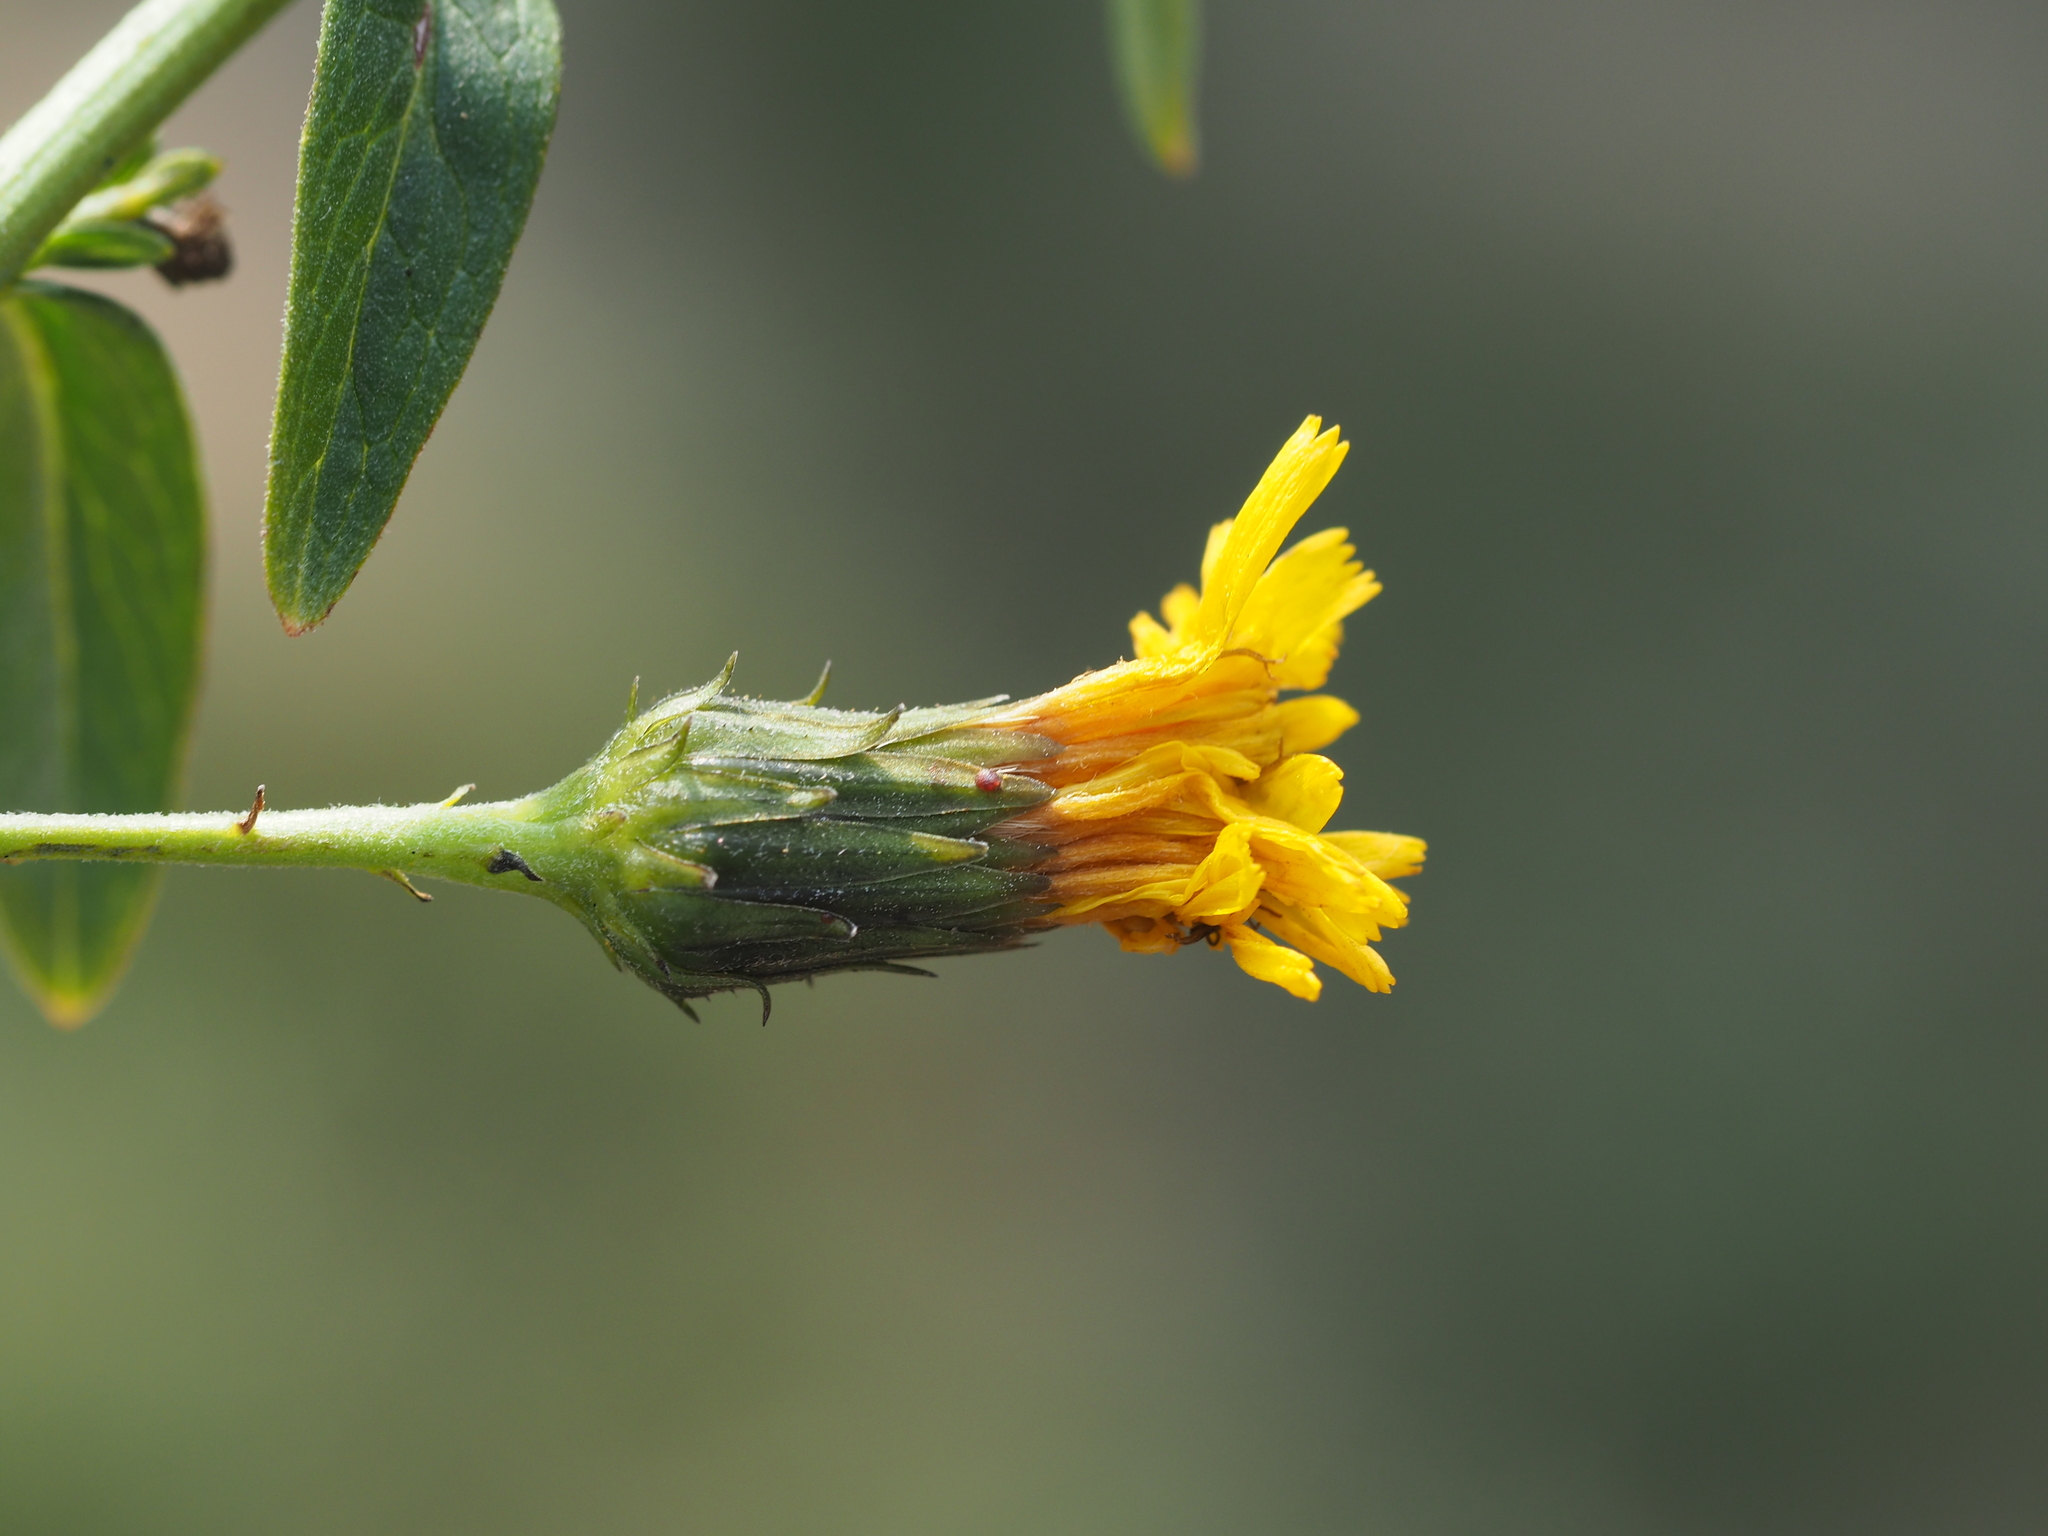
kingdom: Plantae
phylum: Tracheophyta
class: Magnoliopsida
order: Asterales
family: Asteraceae
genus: Hieracium
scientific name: Hieracium sabaudum
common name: New england hawkweed
